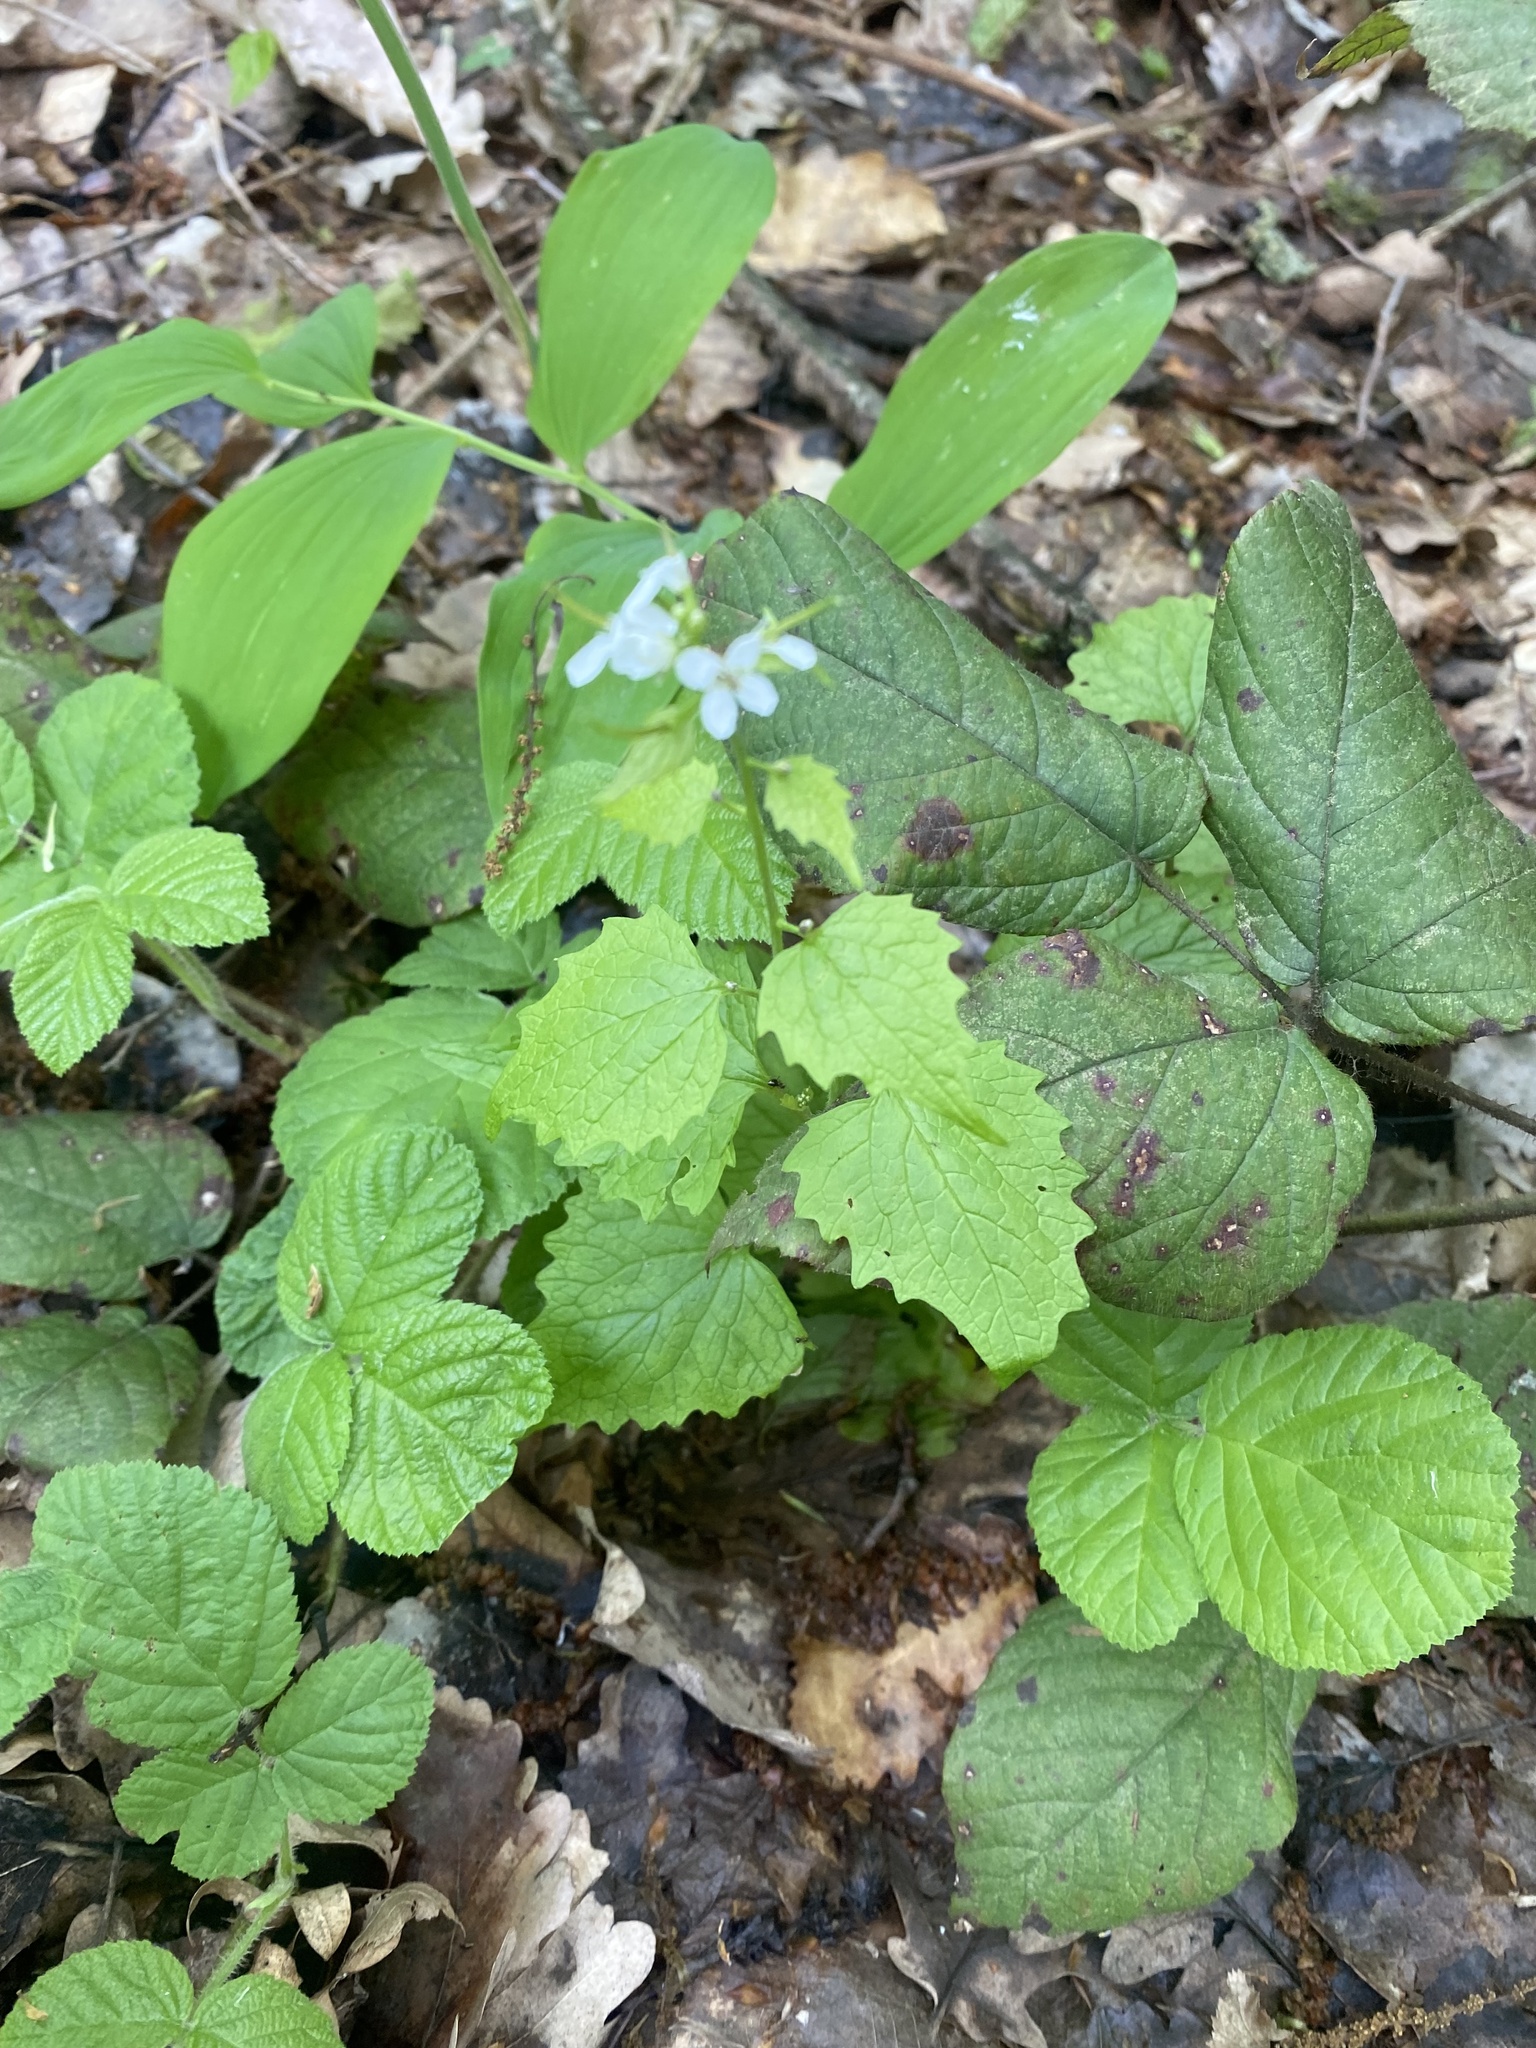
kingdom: Plantae
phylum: Tracheophyta
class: Magnoliopsida
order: Brassicales
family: Brassicaceae
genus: Alliaria
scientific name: Alliaria petiolata
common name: Garlic mustard
